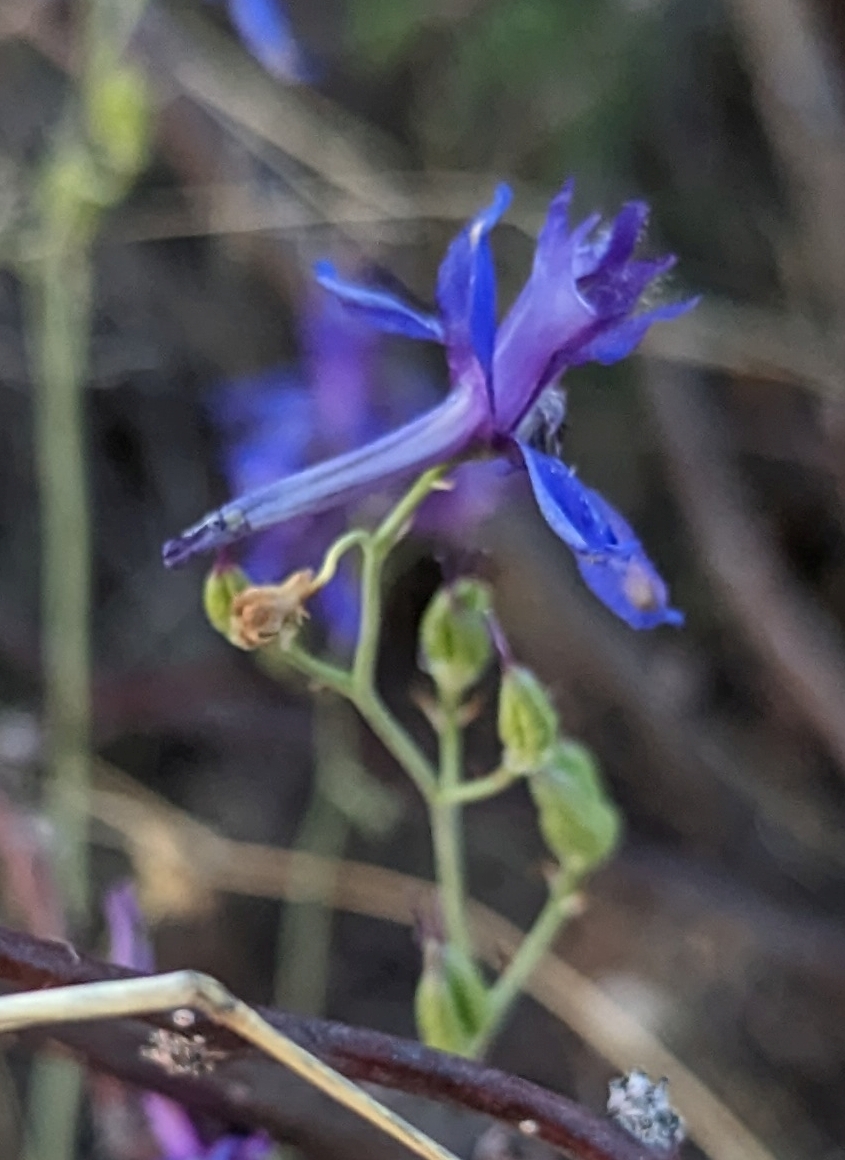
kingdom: Plantae
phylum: Tracheophyta
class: Magnoliopsida
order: Ranunculales
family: Ranunculaceae
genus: Delphinium
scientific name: Delphinium scaposum
